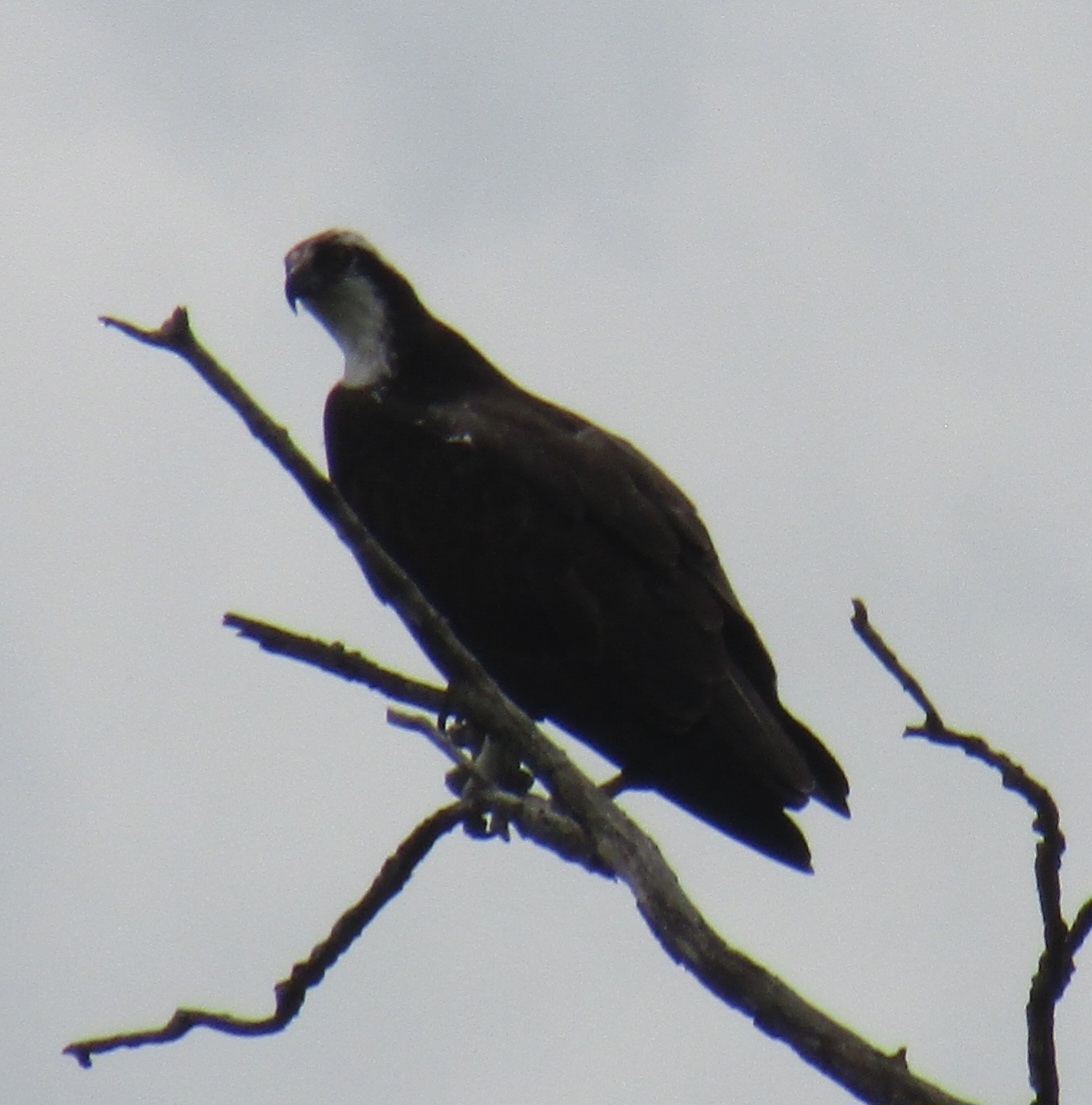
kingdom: Animalia
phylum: Chordata
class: Aves
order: Accipitriformes
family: Pandionidae
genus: Pandion
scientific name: Pandion haliaetus
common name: Osprey
